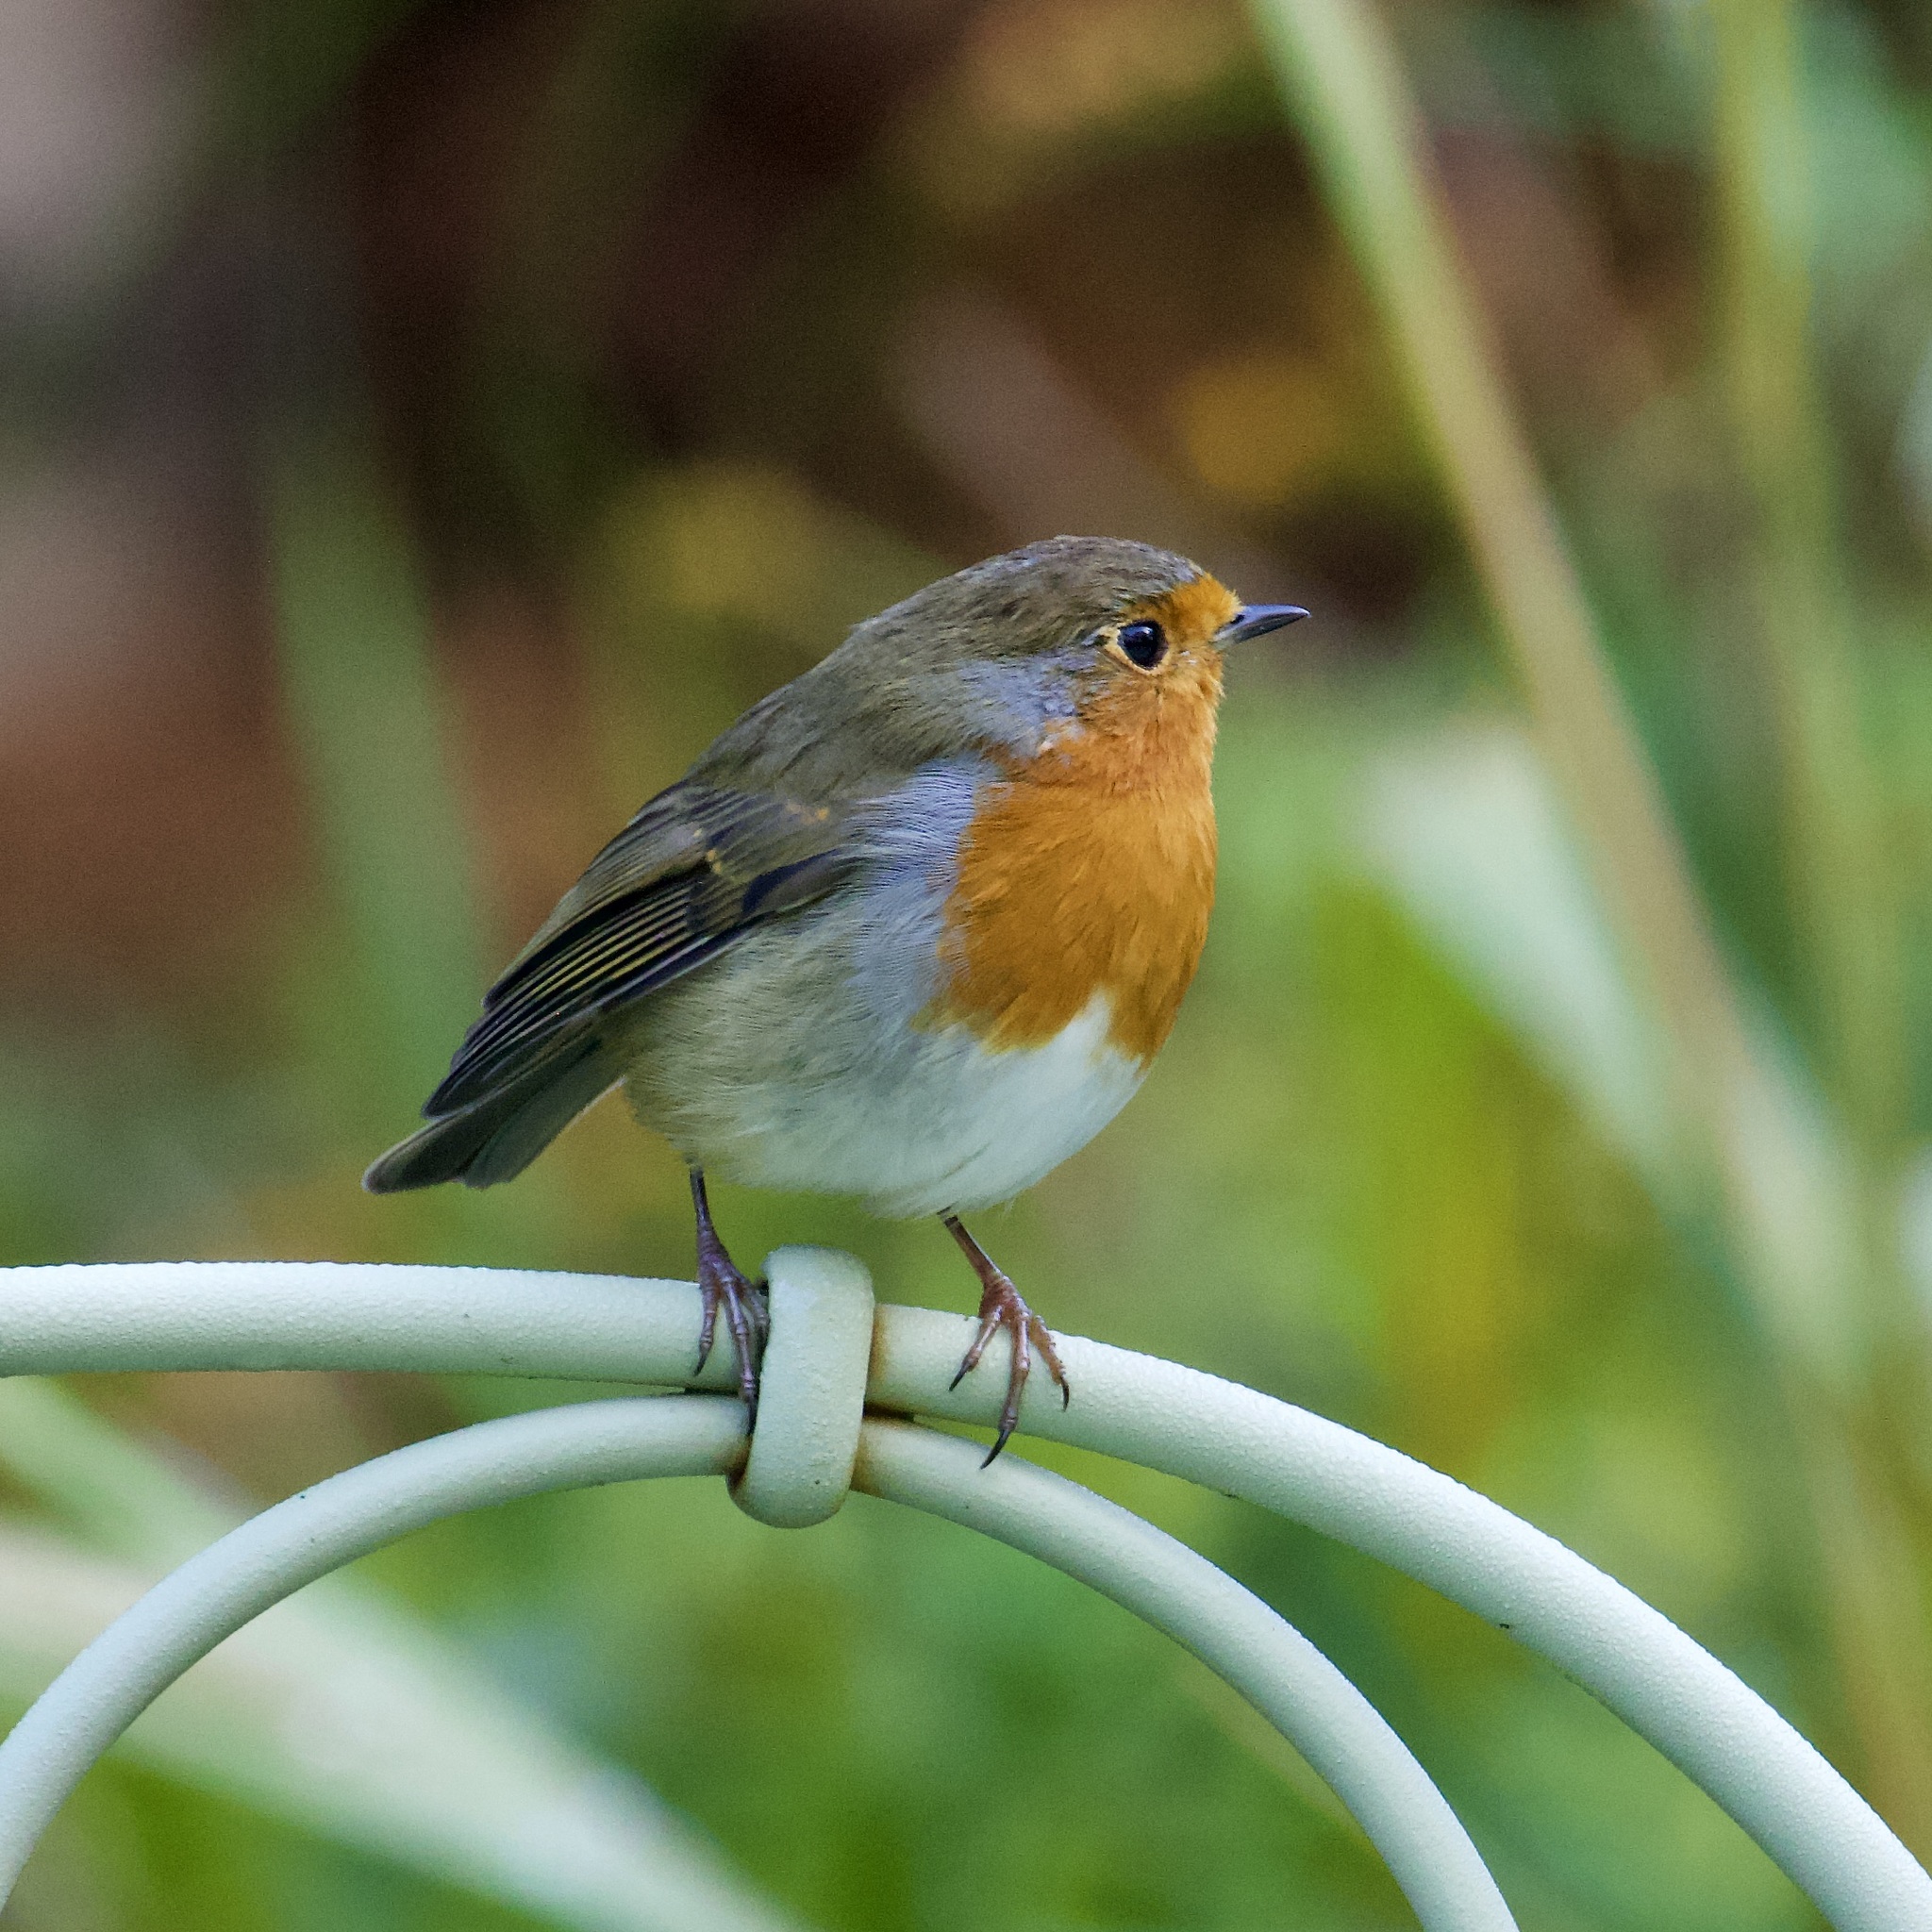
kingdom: Animalia
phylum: Chordata
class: Aves
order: Passeriformes
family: Muscicapidae
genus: Erithacus
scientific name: Erithacus rubecula
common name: European robin
